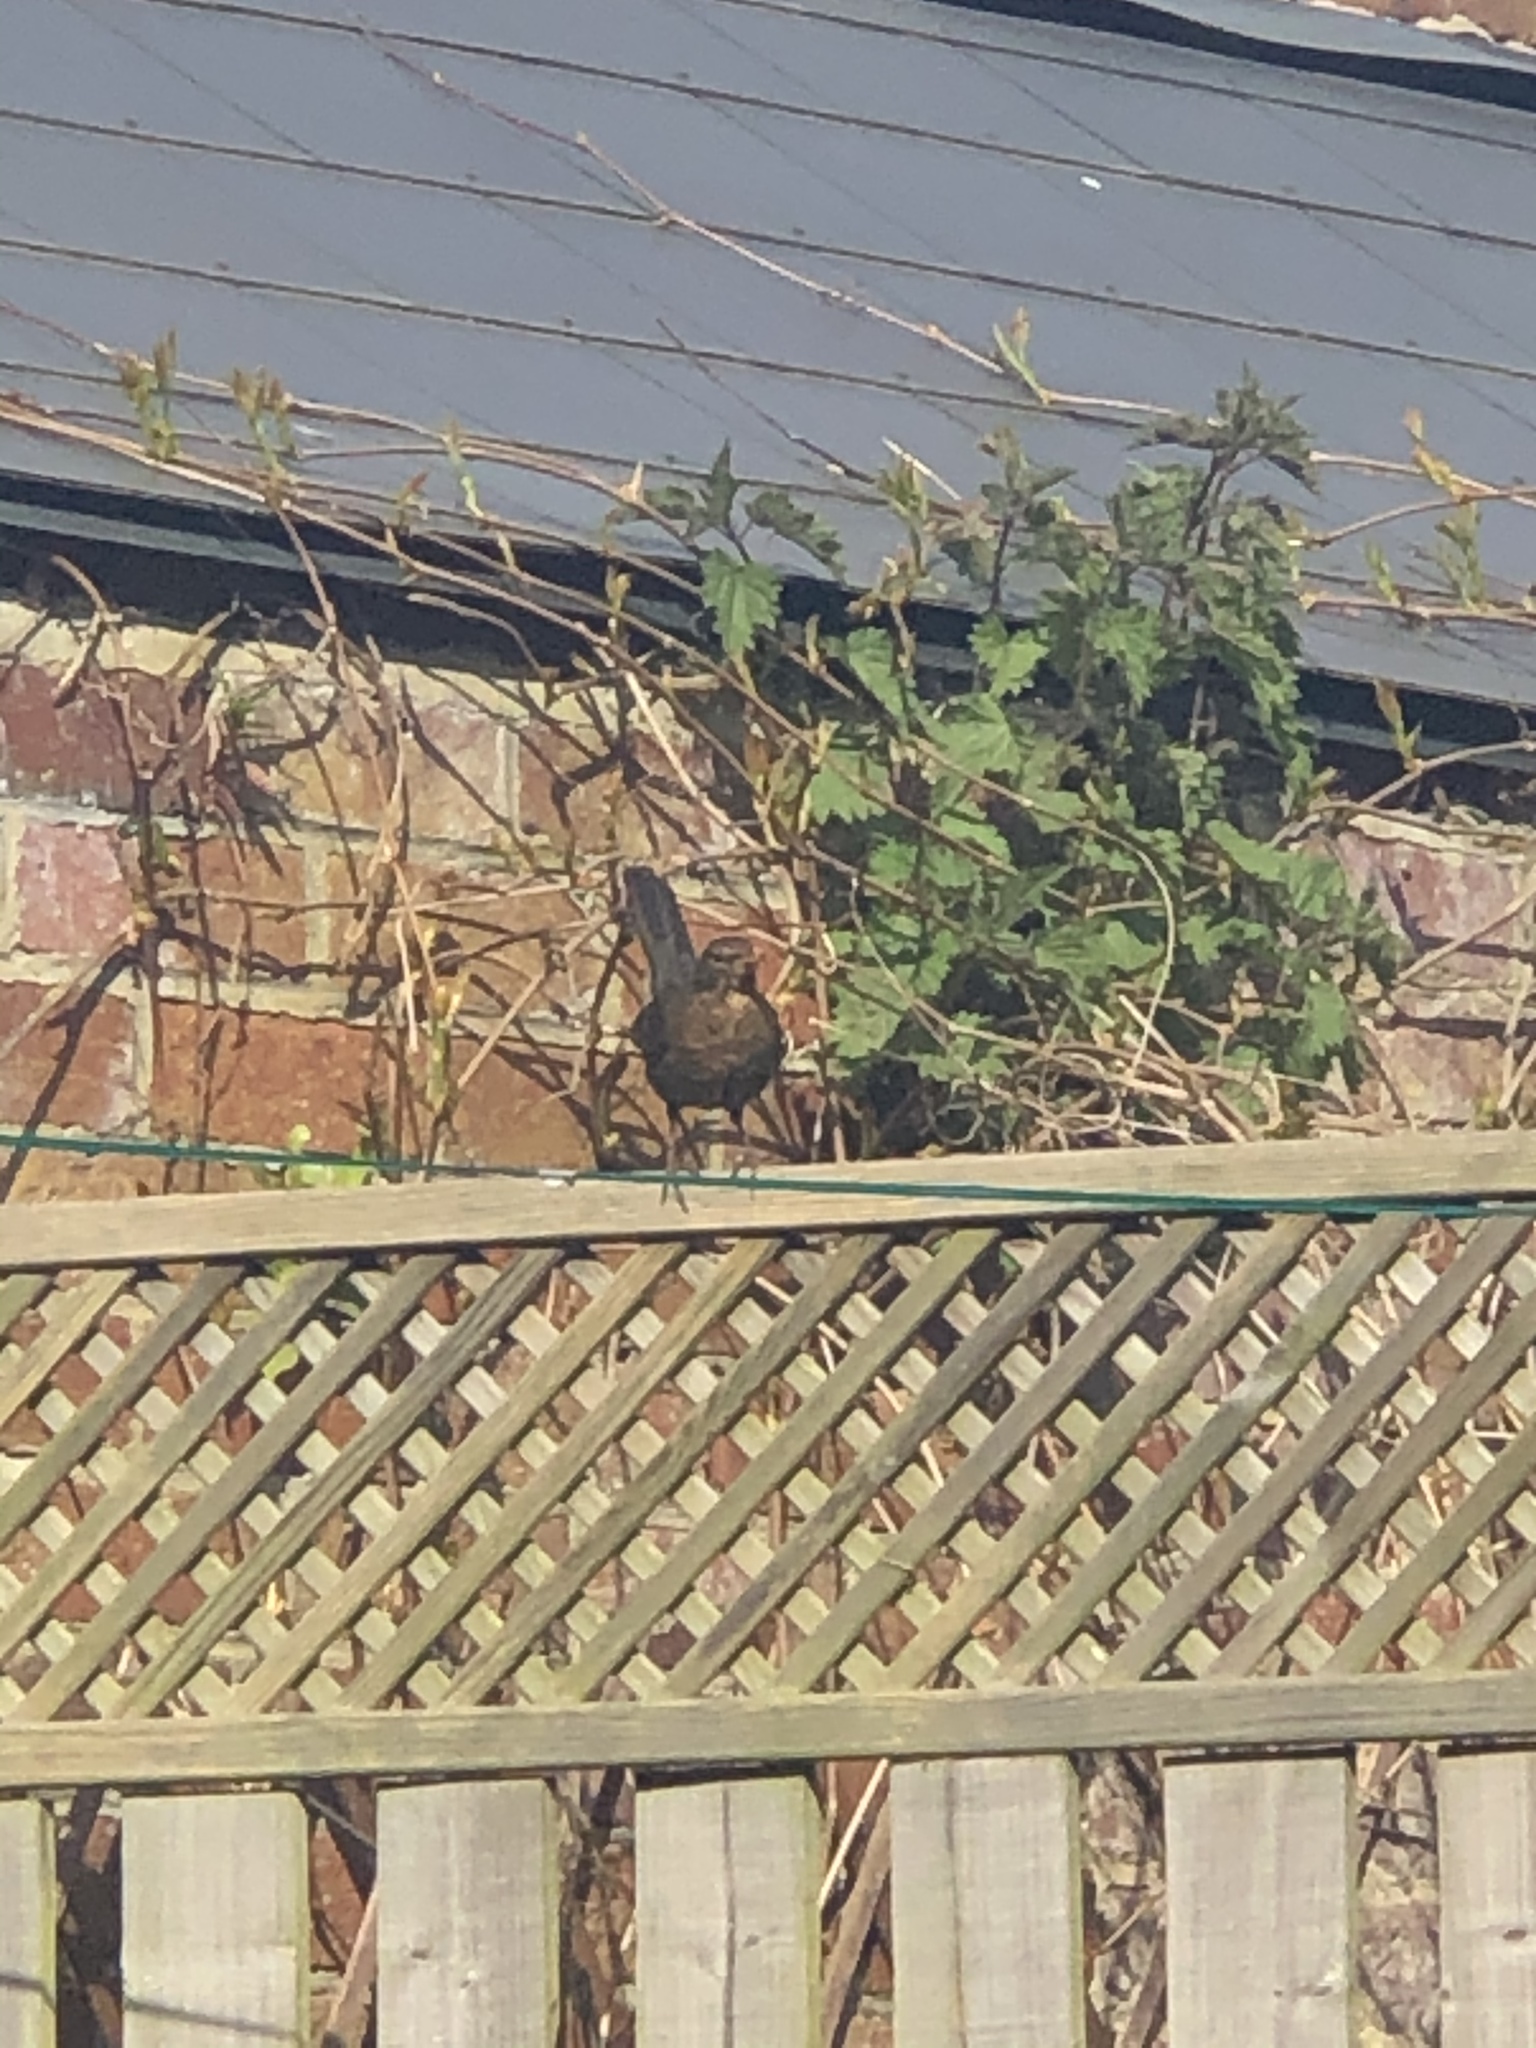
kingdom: Animalia
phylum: Chordata
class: Aves
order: Passeriformes
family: Turdidae
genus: Turdus
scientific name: Turdus merula
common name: Common blackbird
